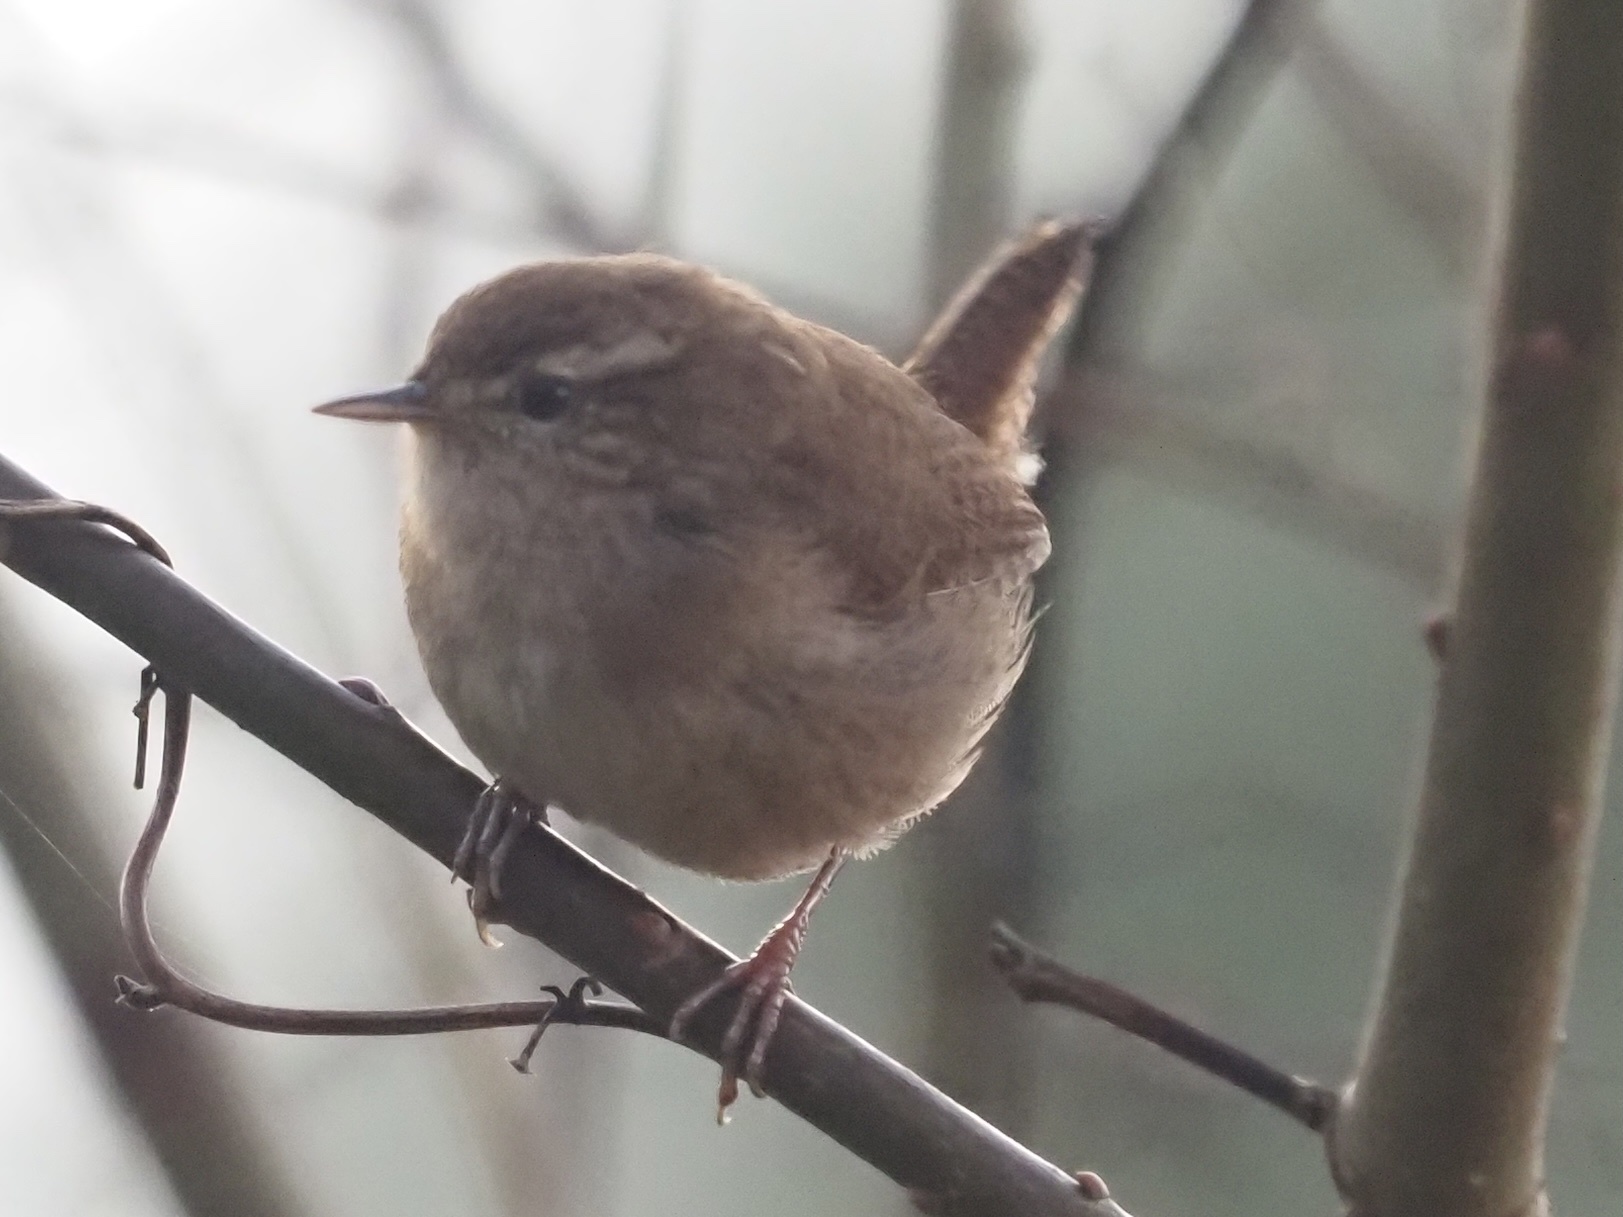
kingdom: Animalia
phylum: Chordata
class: Aves
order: Passeriformes
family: Troglodytidae
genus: Troglodytes
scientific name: Troglodytes troglodytes
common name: Eurasian wren
